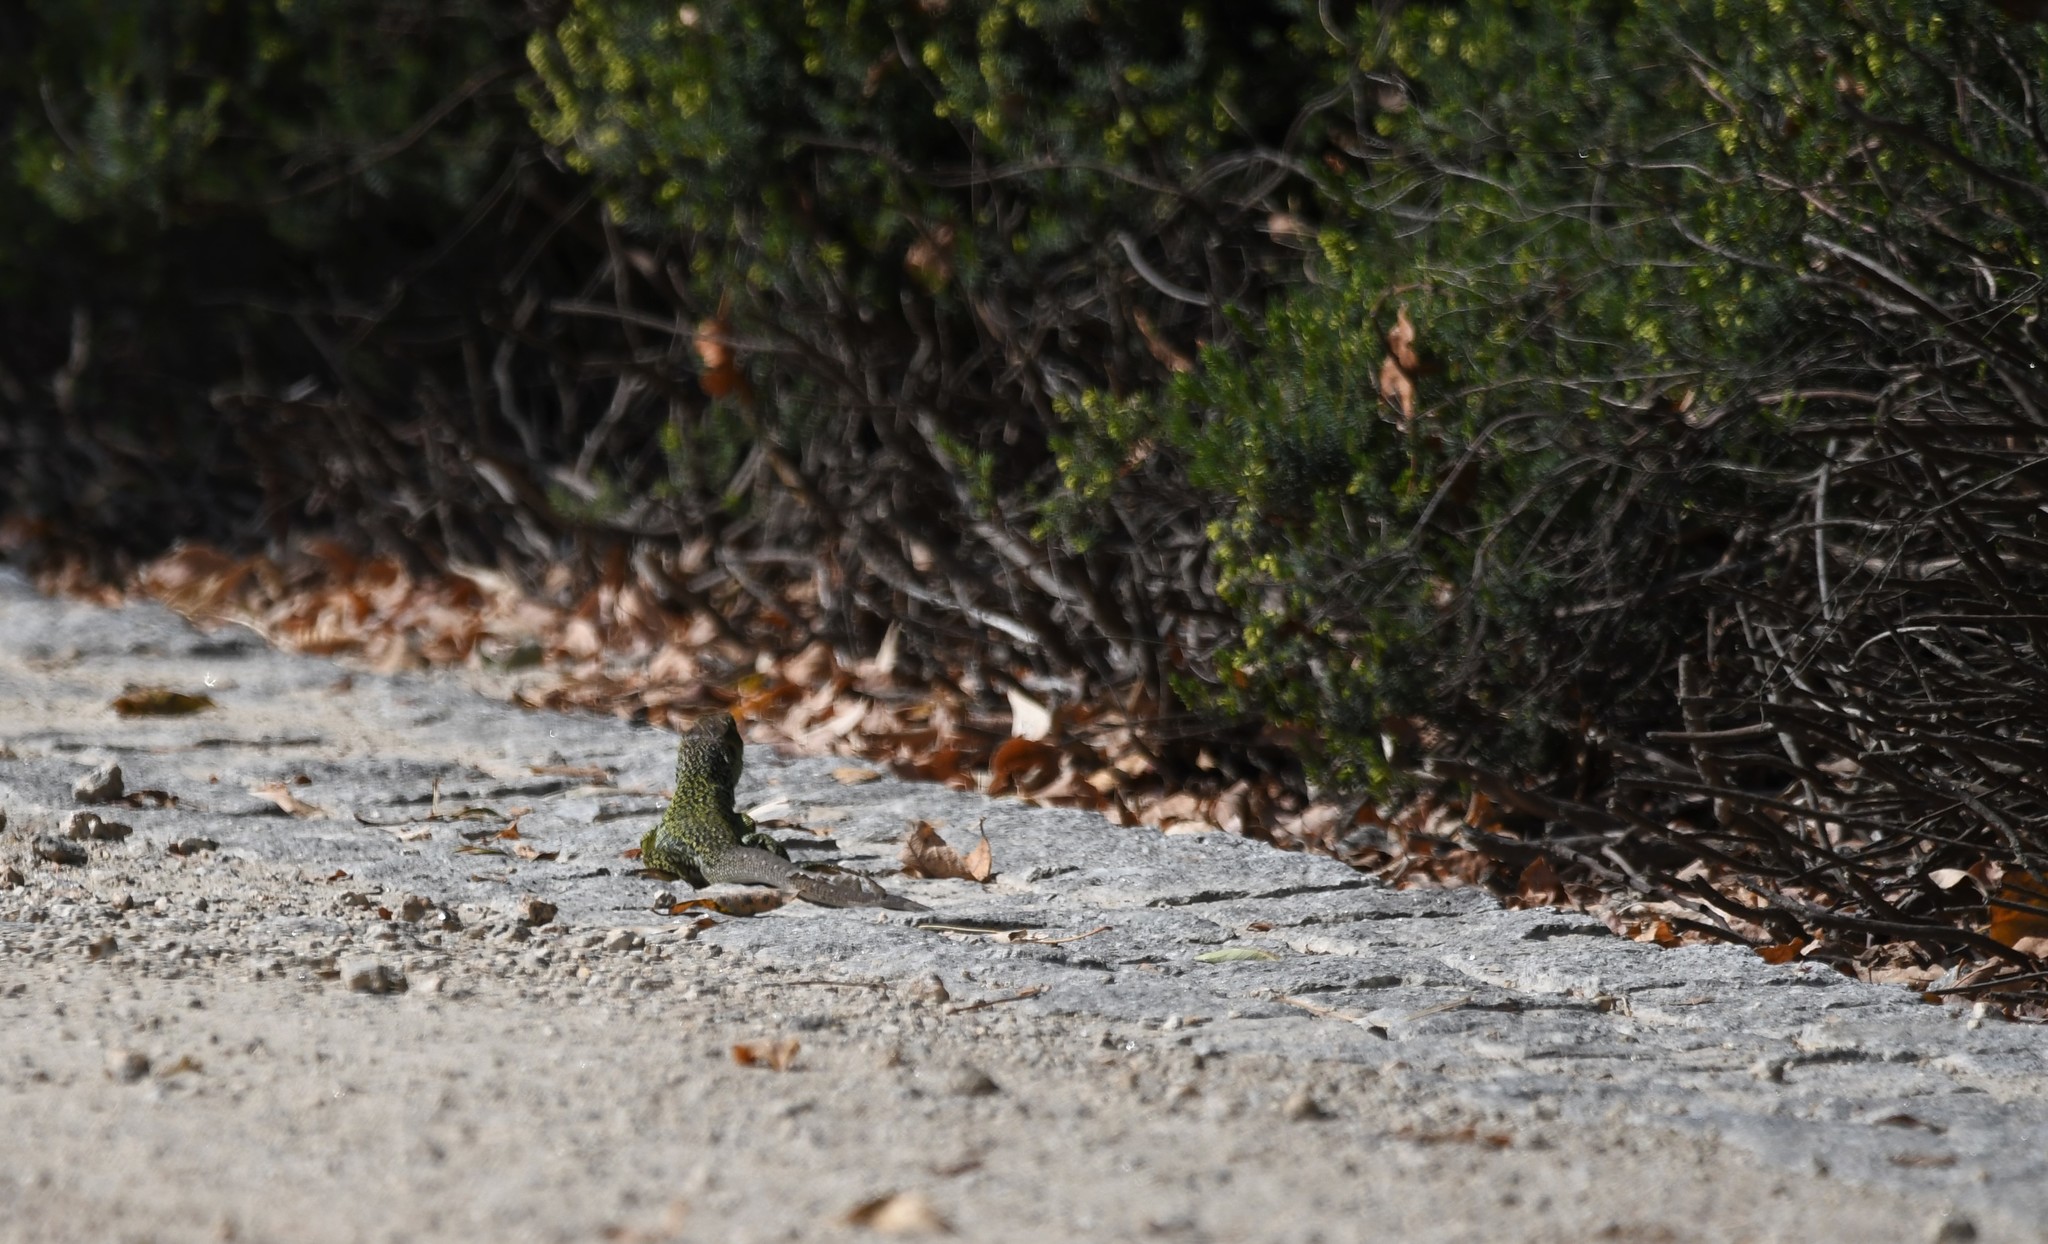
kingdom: Animalia
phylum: Chordata
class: Squamata
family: Lacertidae
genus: Timon
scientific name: Timon lepidus
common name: Ocellated lizard
